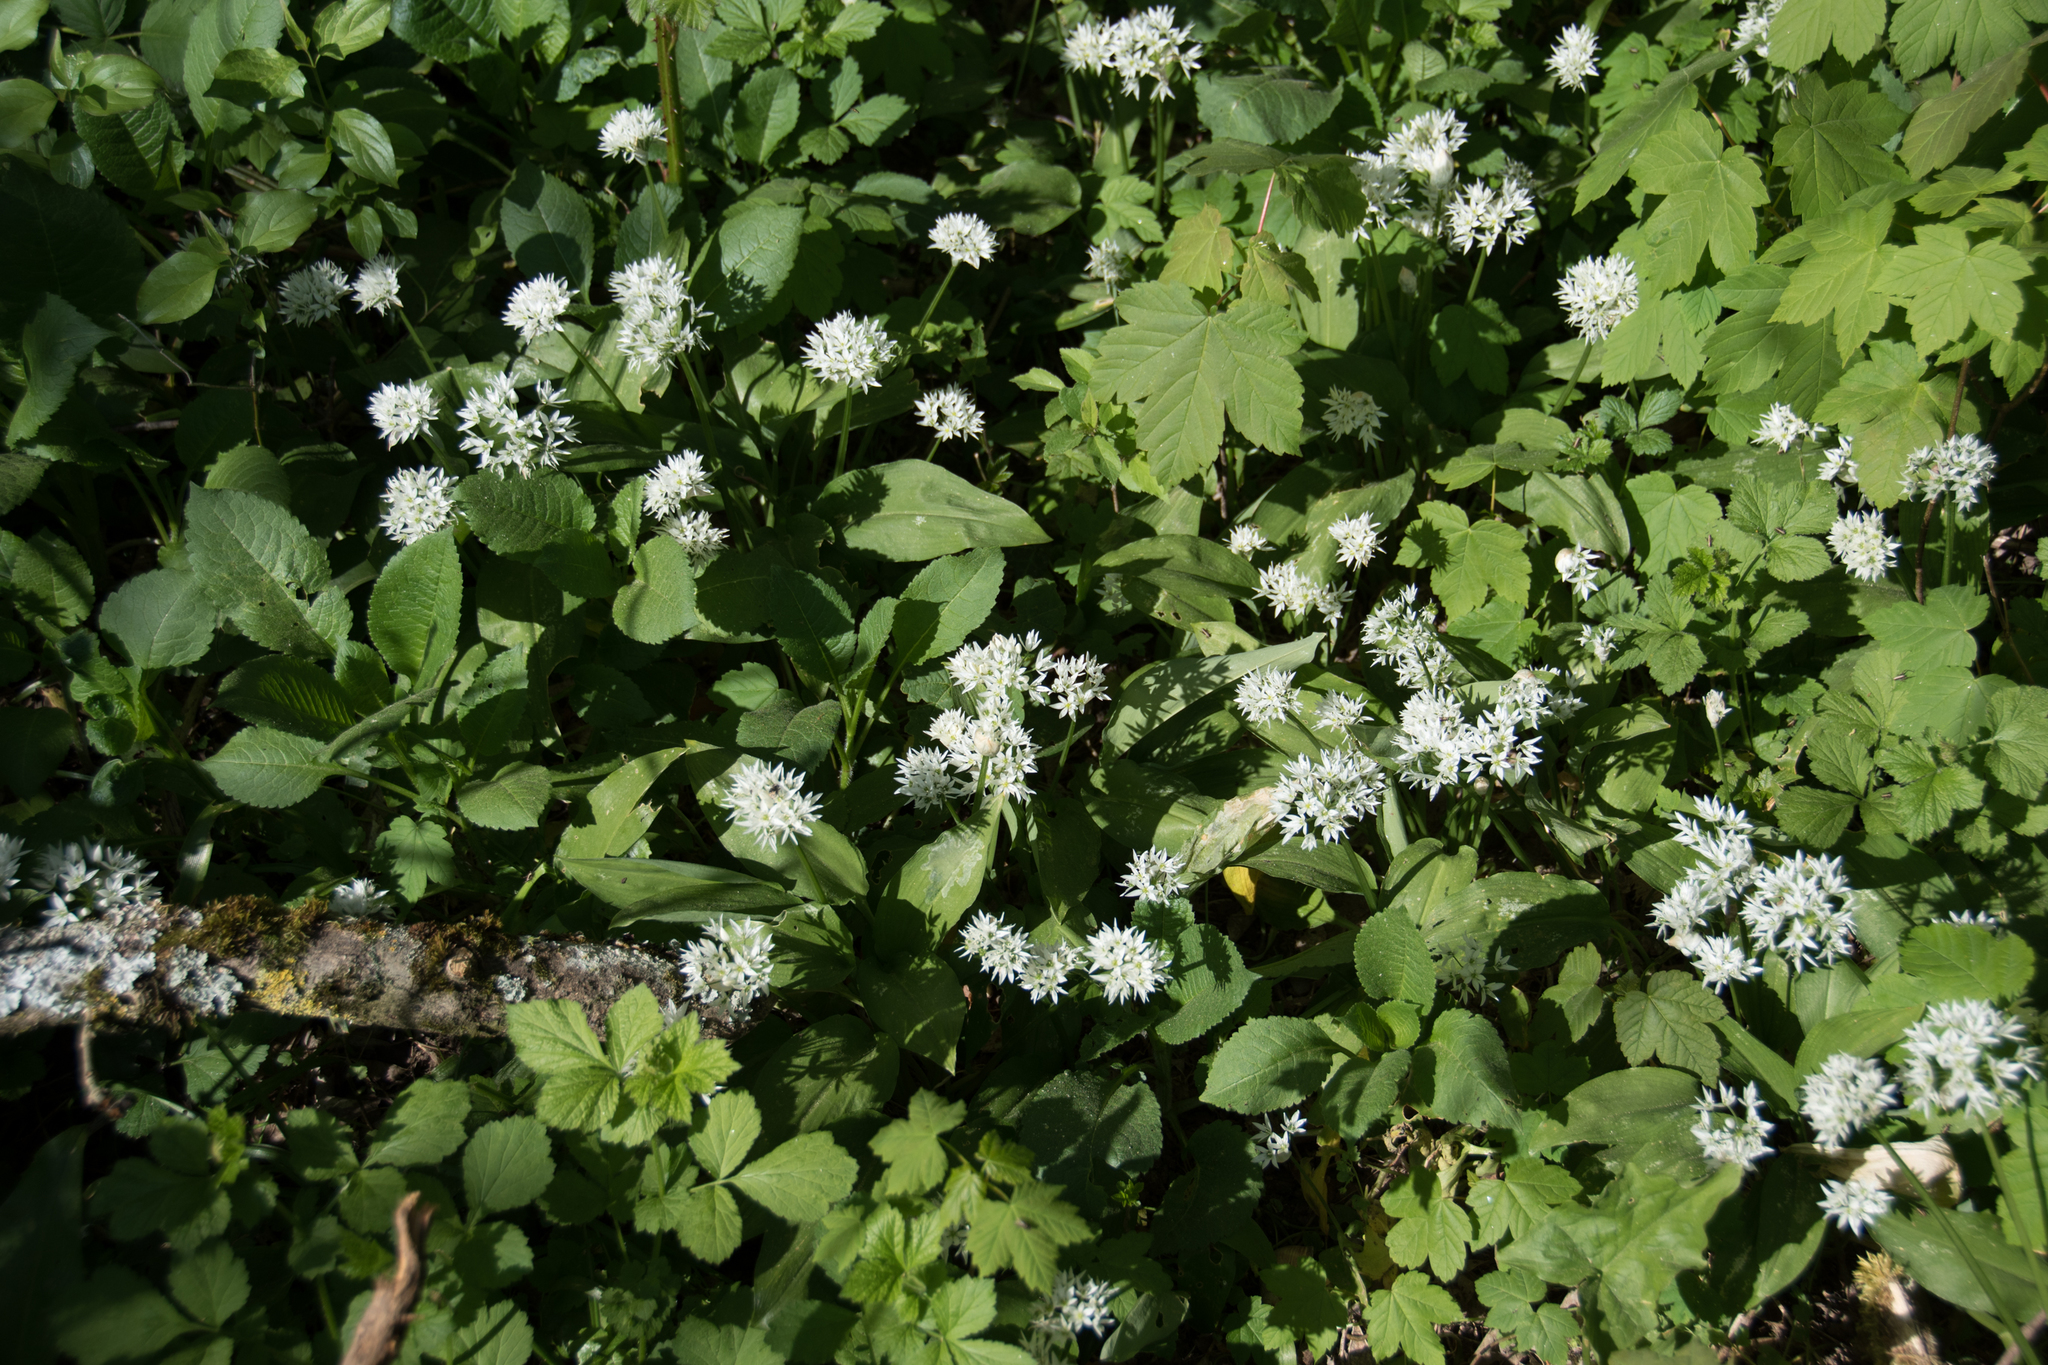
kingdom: Plantae
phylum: Tracheophyta
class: Liliopsida
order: Asparagales
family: Amaryllidaceae
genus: Allium
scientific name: Allium ursinum
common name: Ramsons
